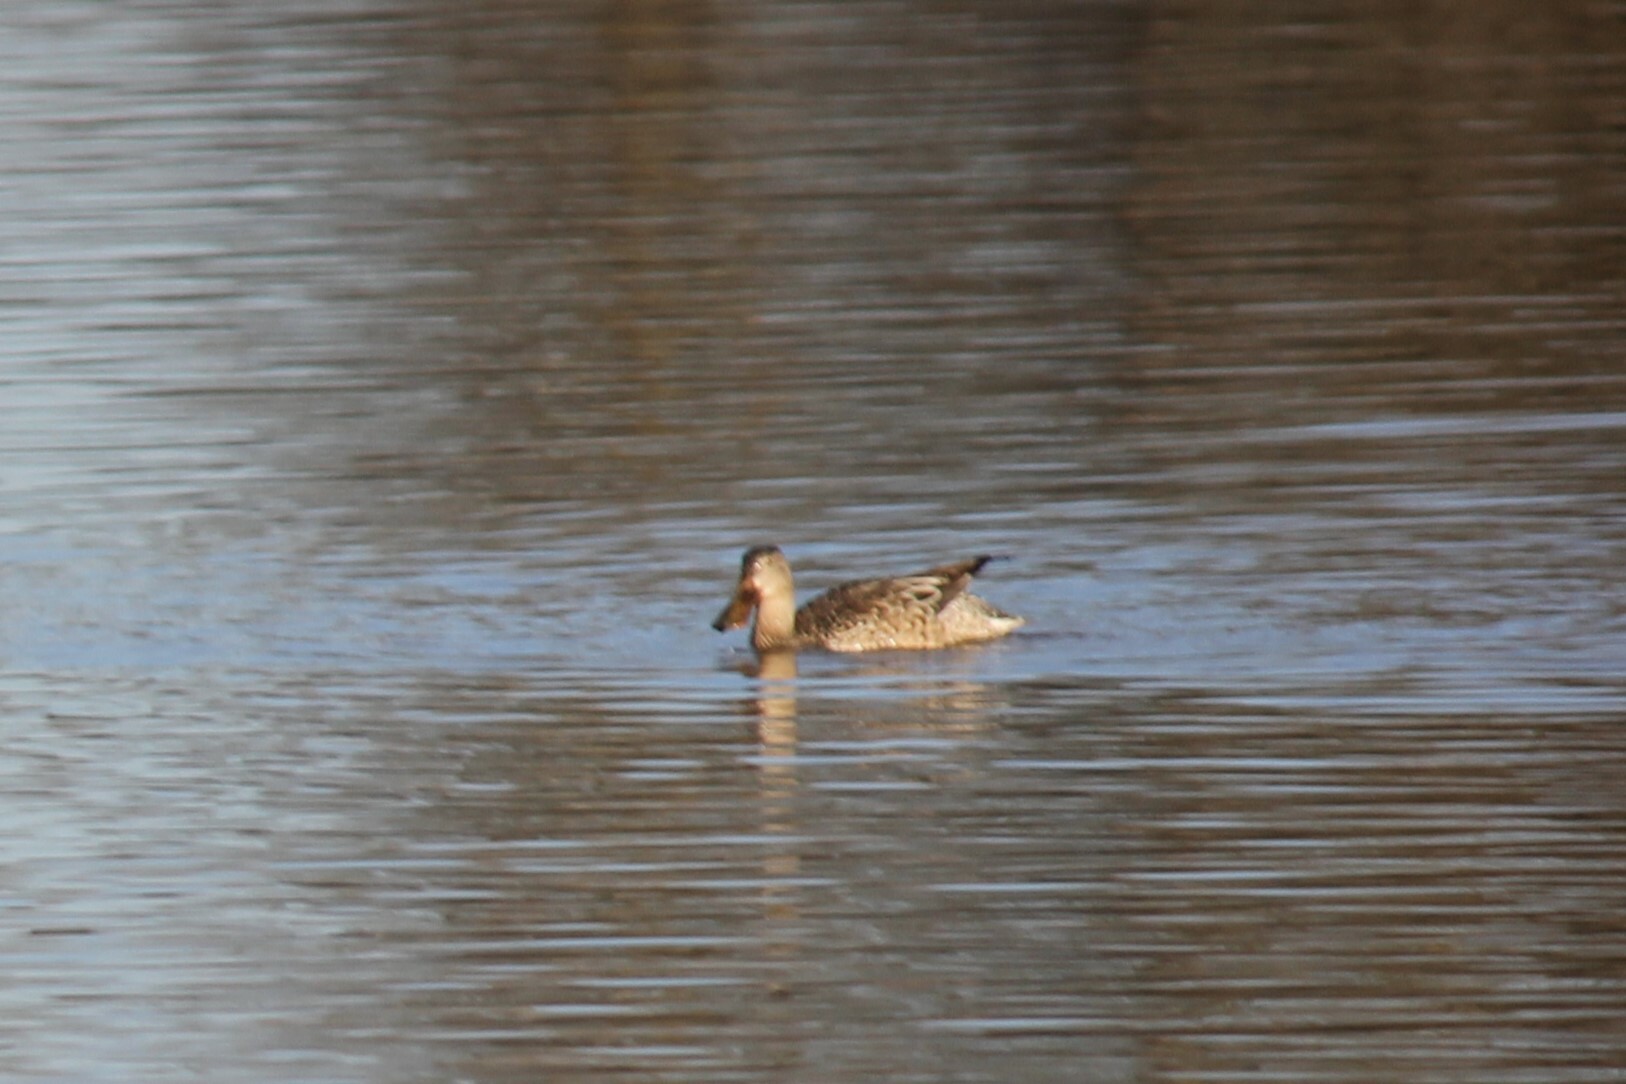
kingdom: Animalia
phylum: Chordata
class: Aves
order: Anseriformes
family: Anatidae
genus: Spatula
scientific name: Spatula clypeata
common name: Northern shoveler
